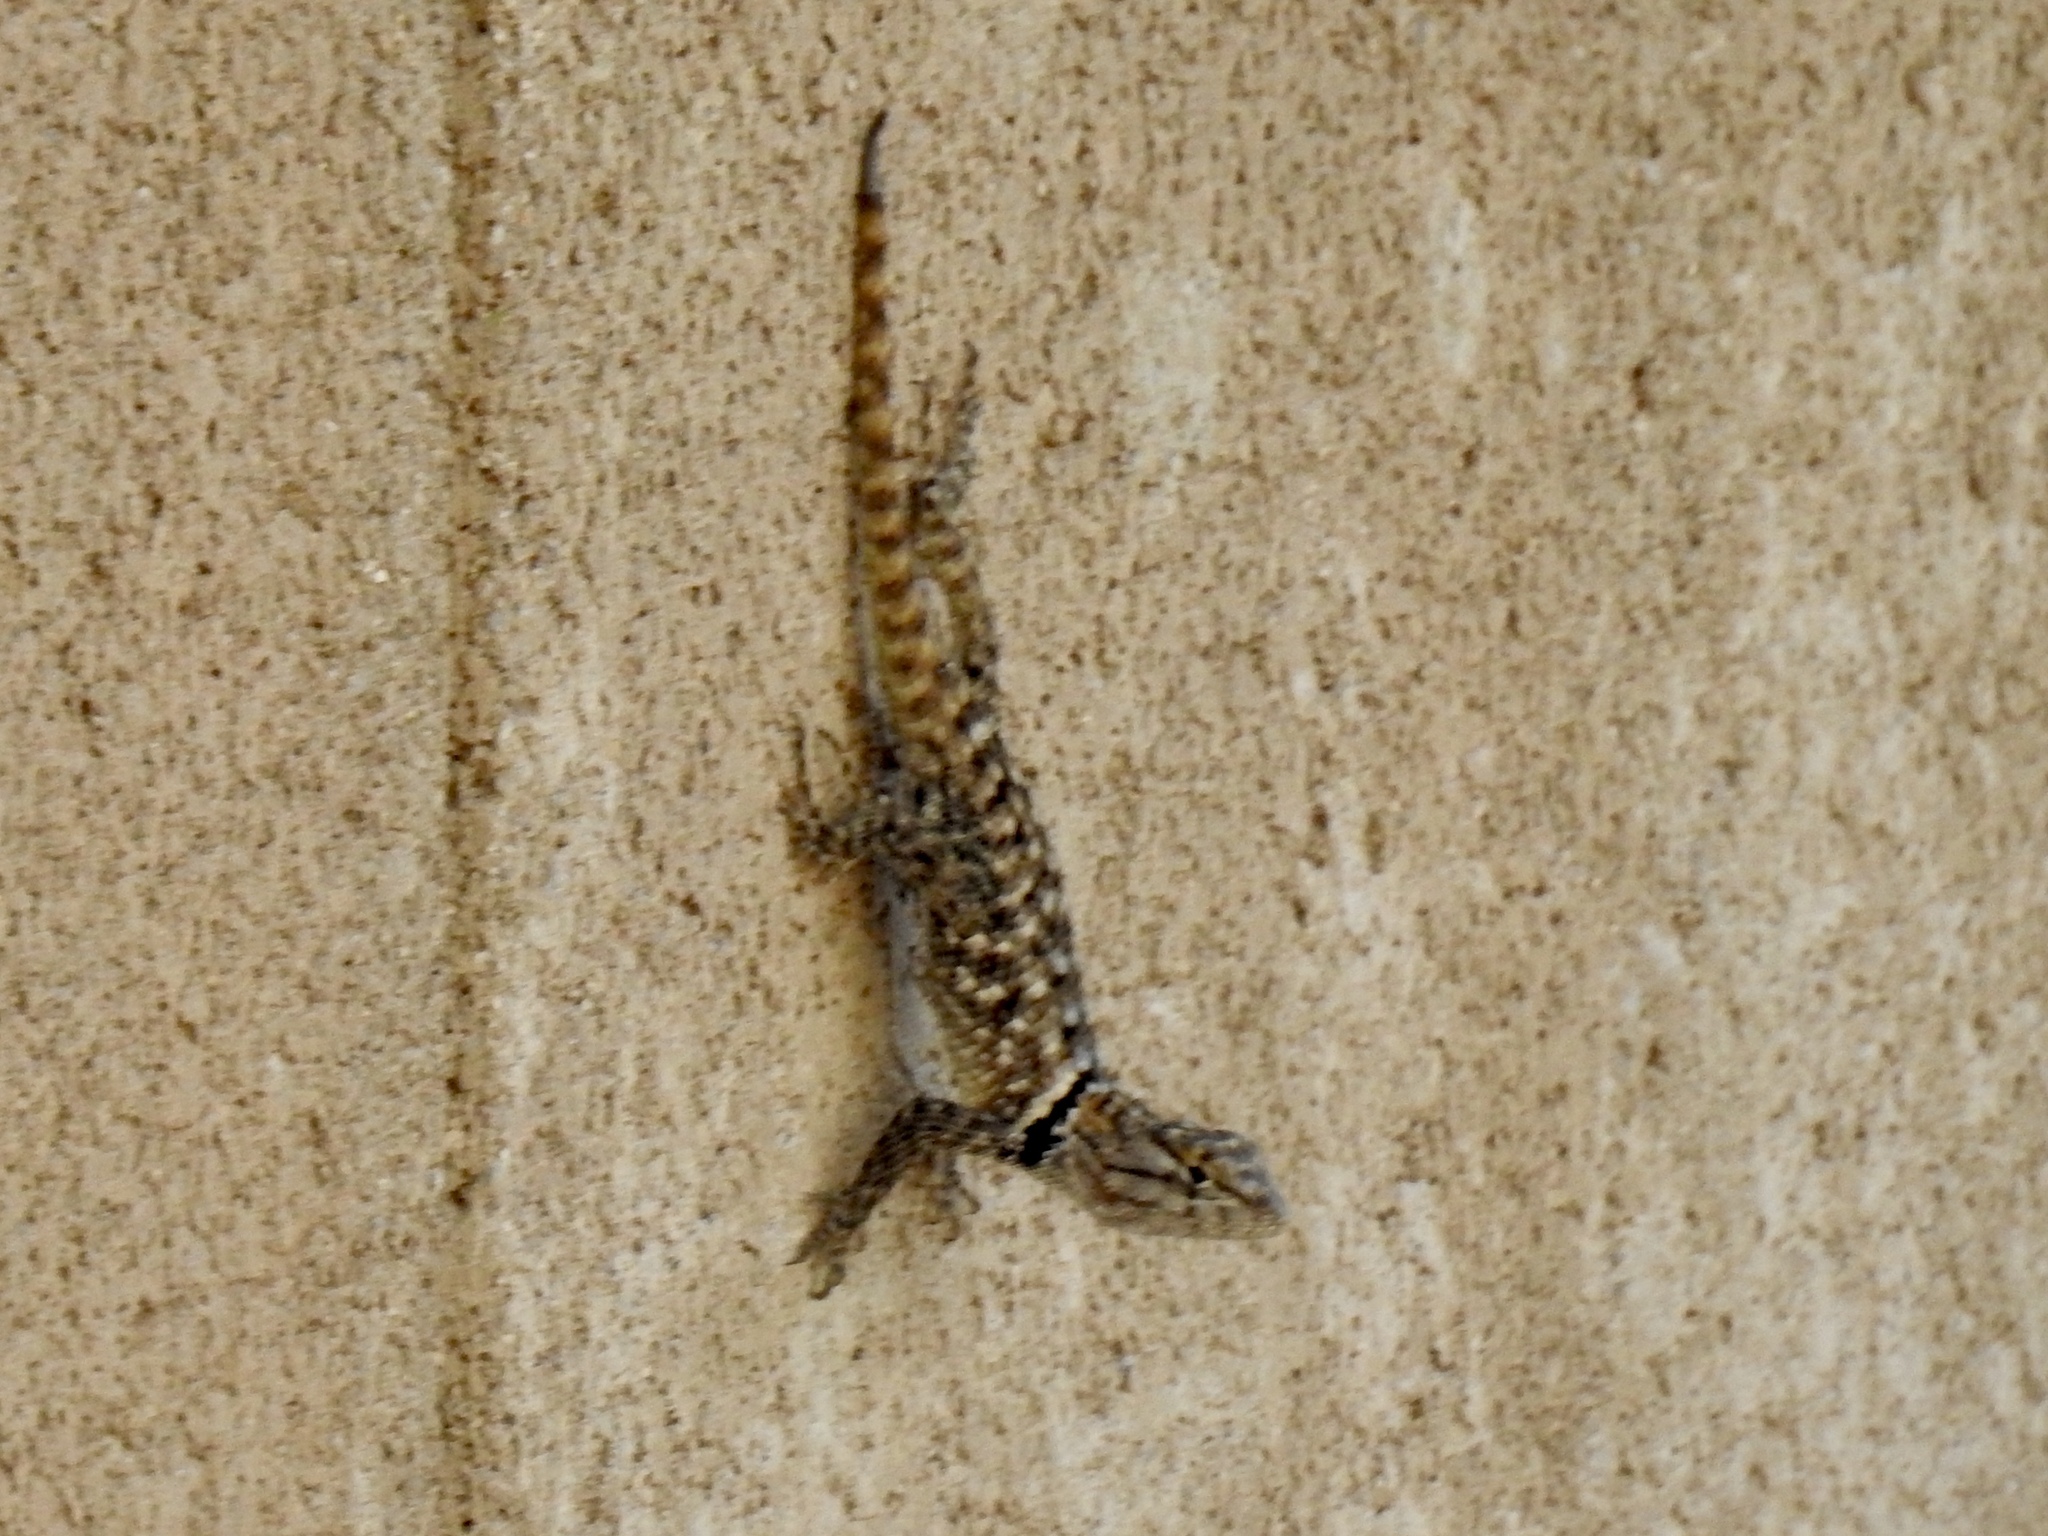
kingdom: Animalia
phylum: Chordata
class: Squamata
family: Phrynosomatidae
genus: Sceloporus
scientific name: Sceloporus magister
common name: Desert spiny lizard
